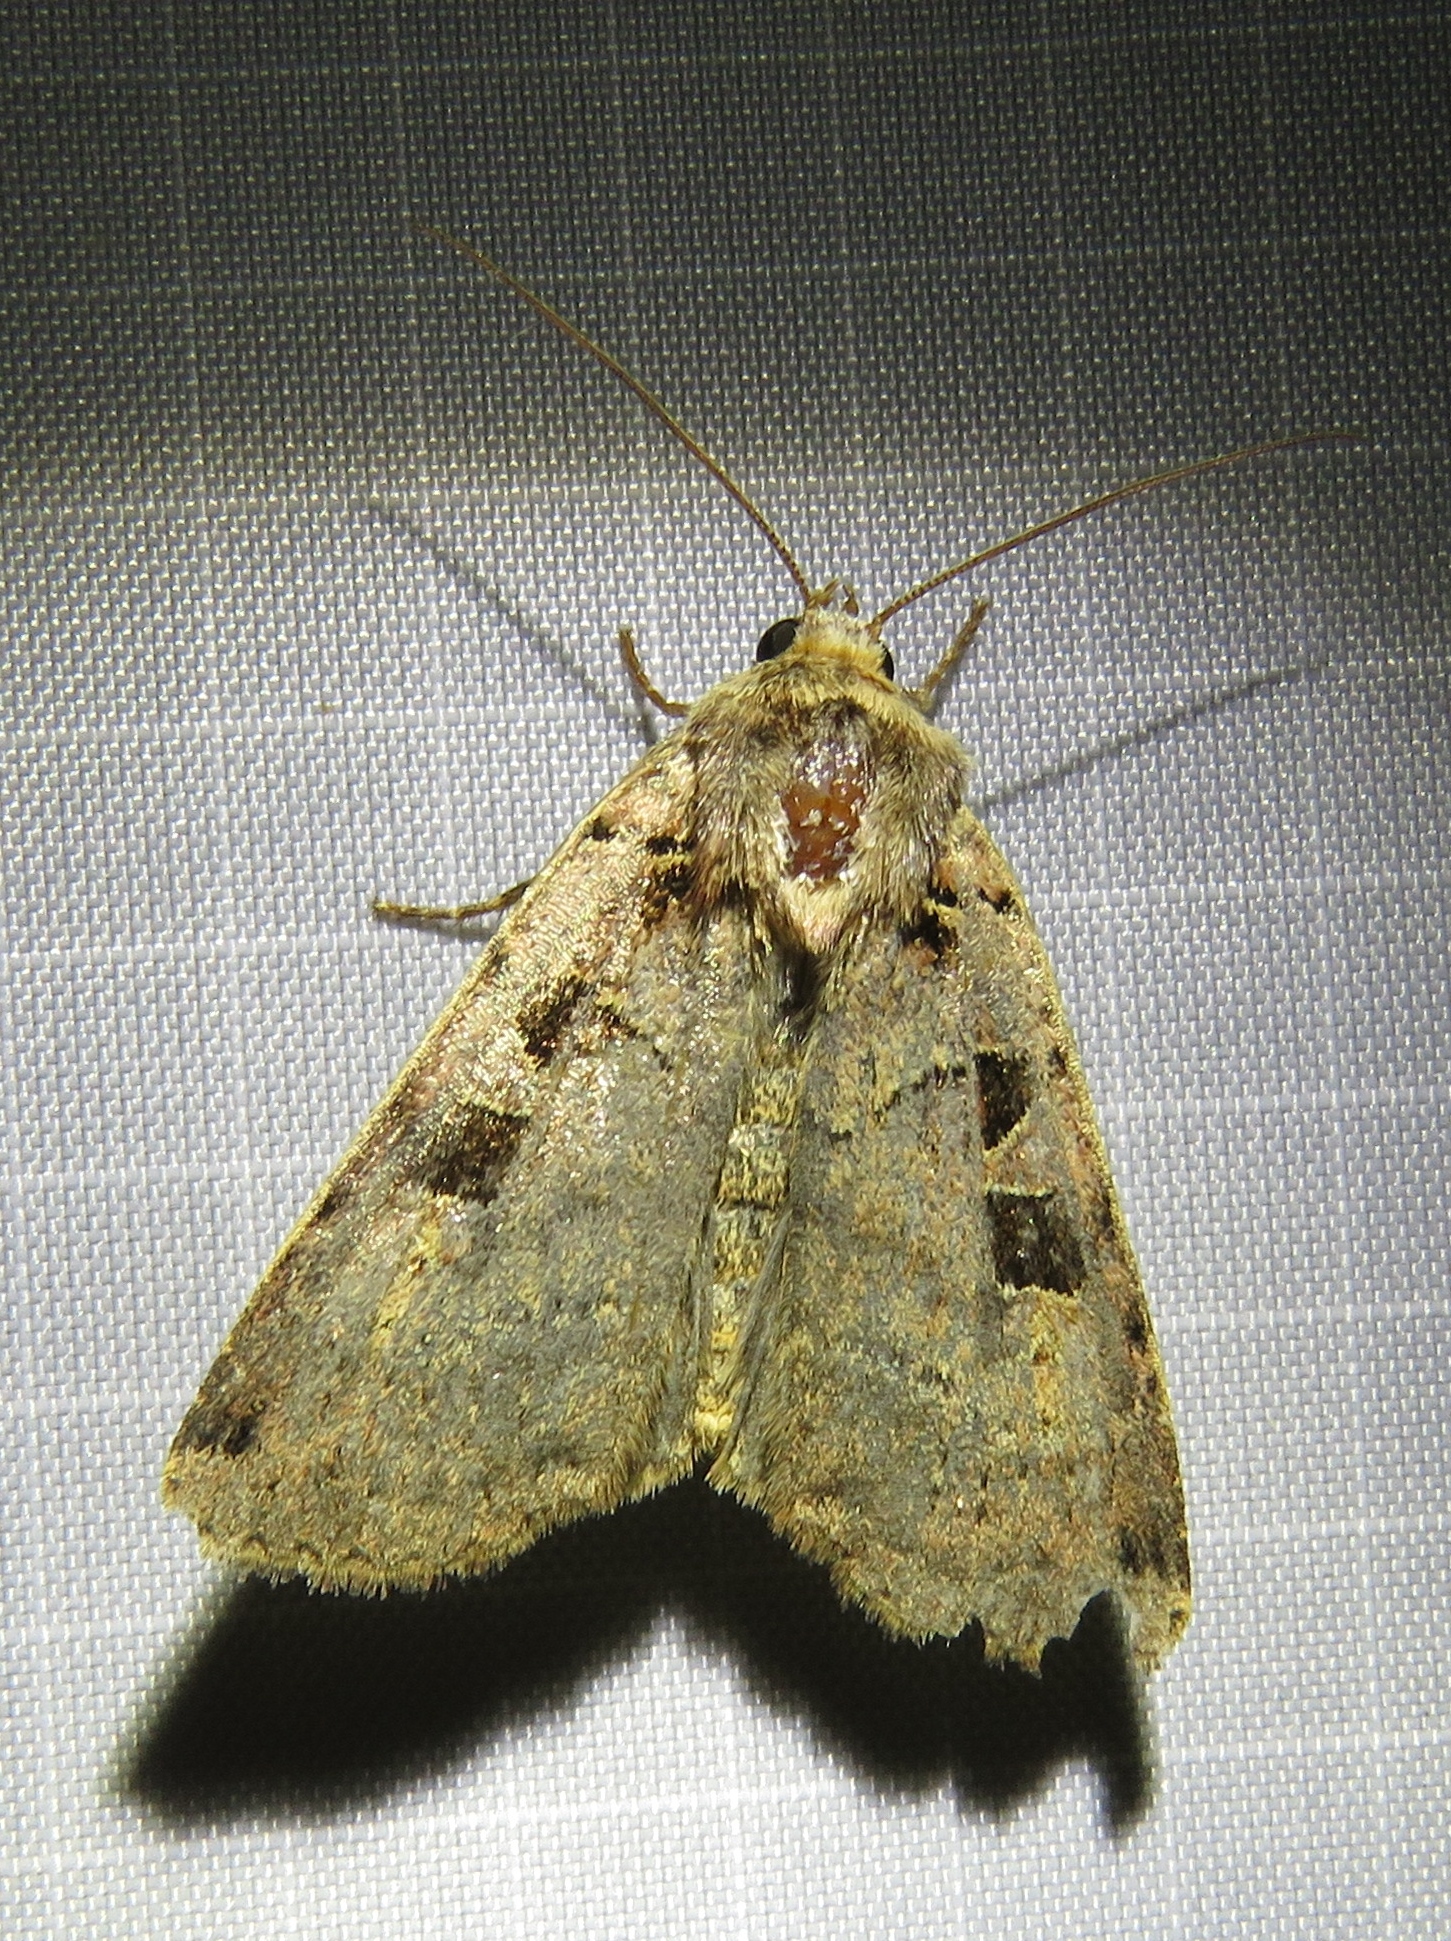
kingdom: Animalia
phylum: Arthropoda
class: Insecta
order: Lepidoptera
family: Noctuidae
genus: Xestia
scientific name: Xestia triangulum
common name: Double square-spot
